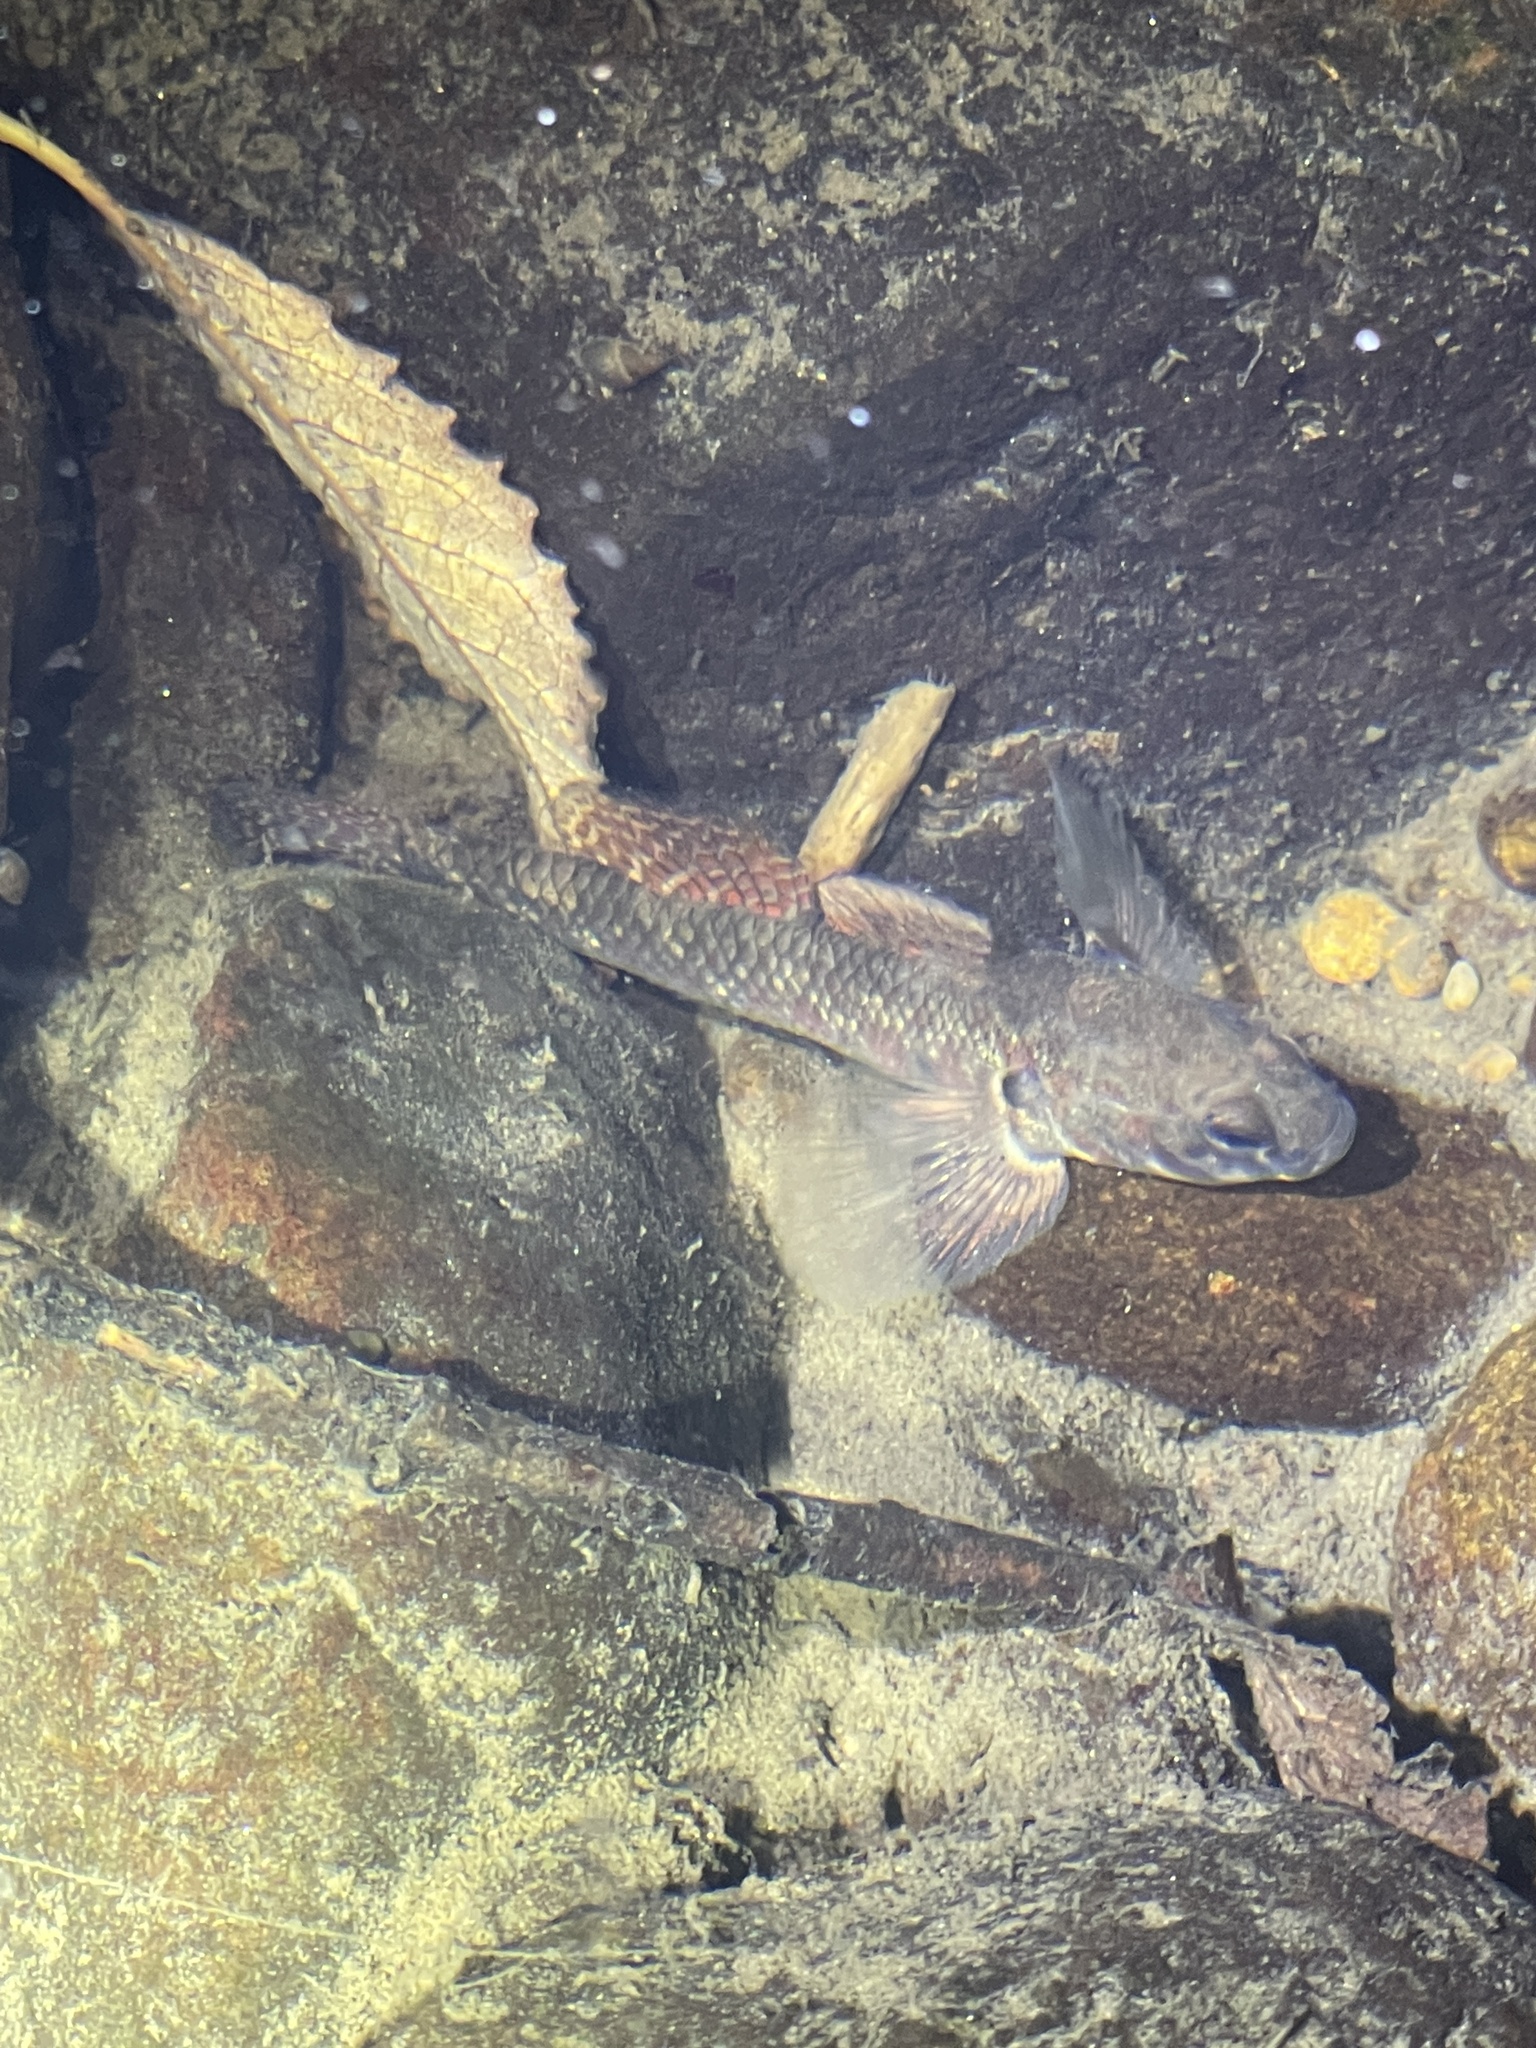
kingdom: Animalia
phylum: Chordata
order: Perciformes
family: Eleotridae
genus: Gobiomorphus
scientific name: Gobiomorphus huttoni
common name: Redfin bully
